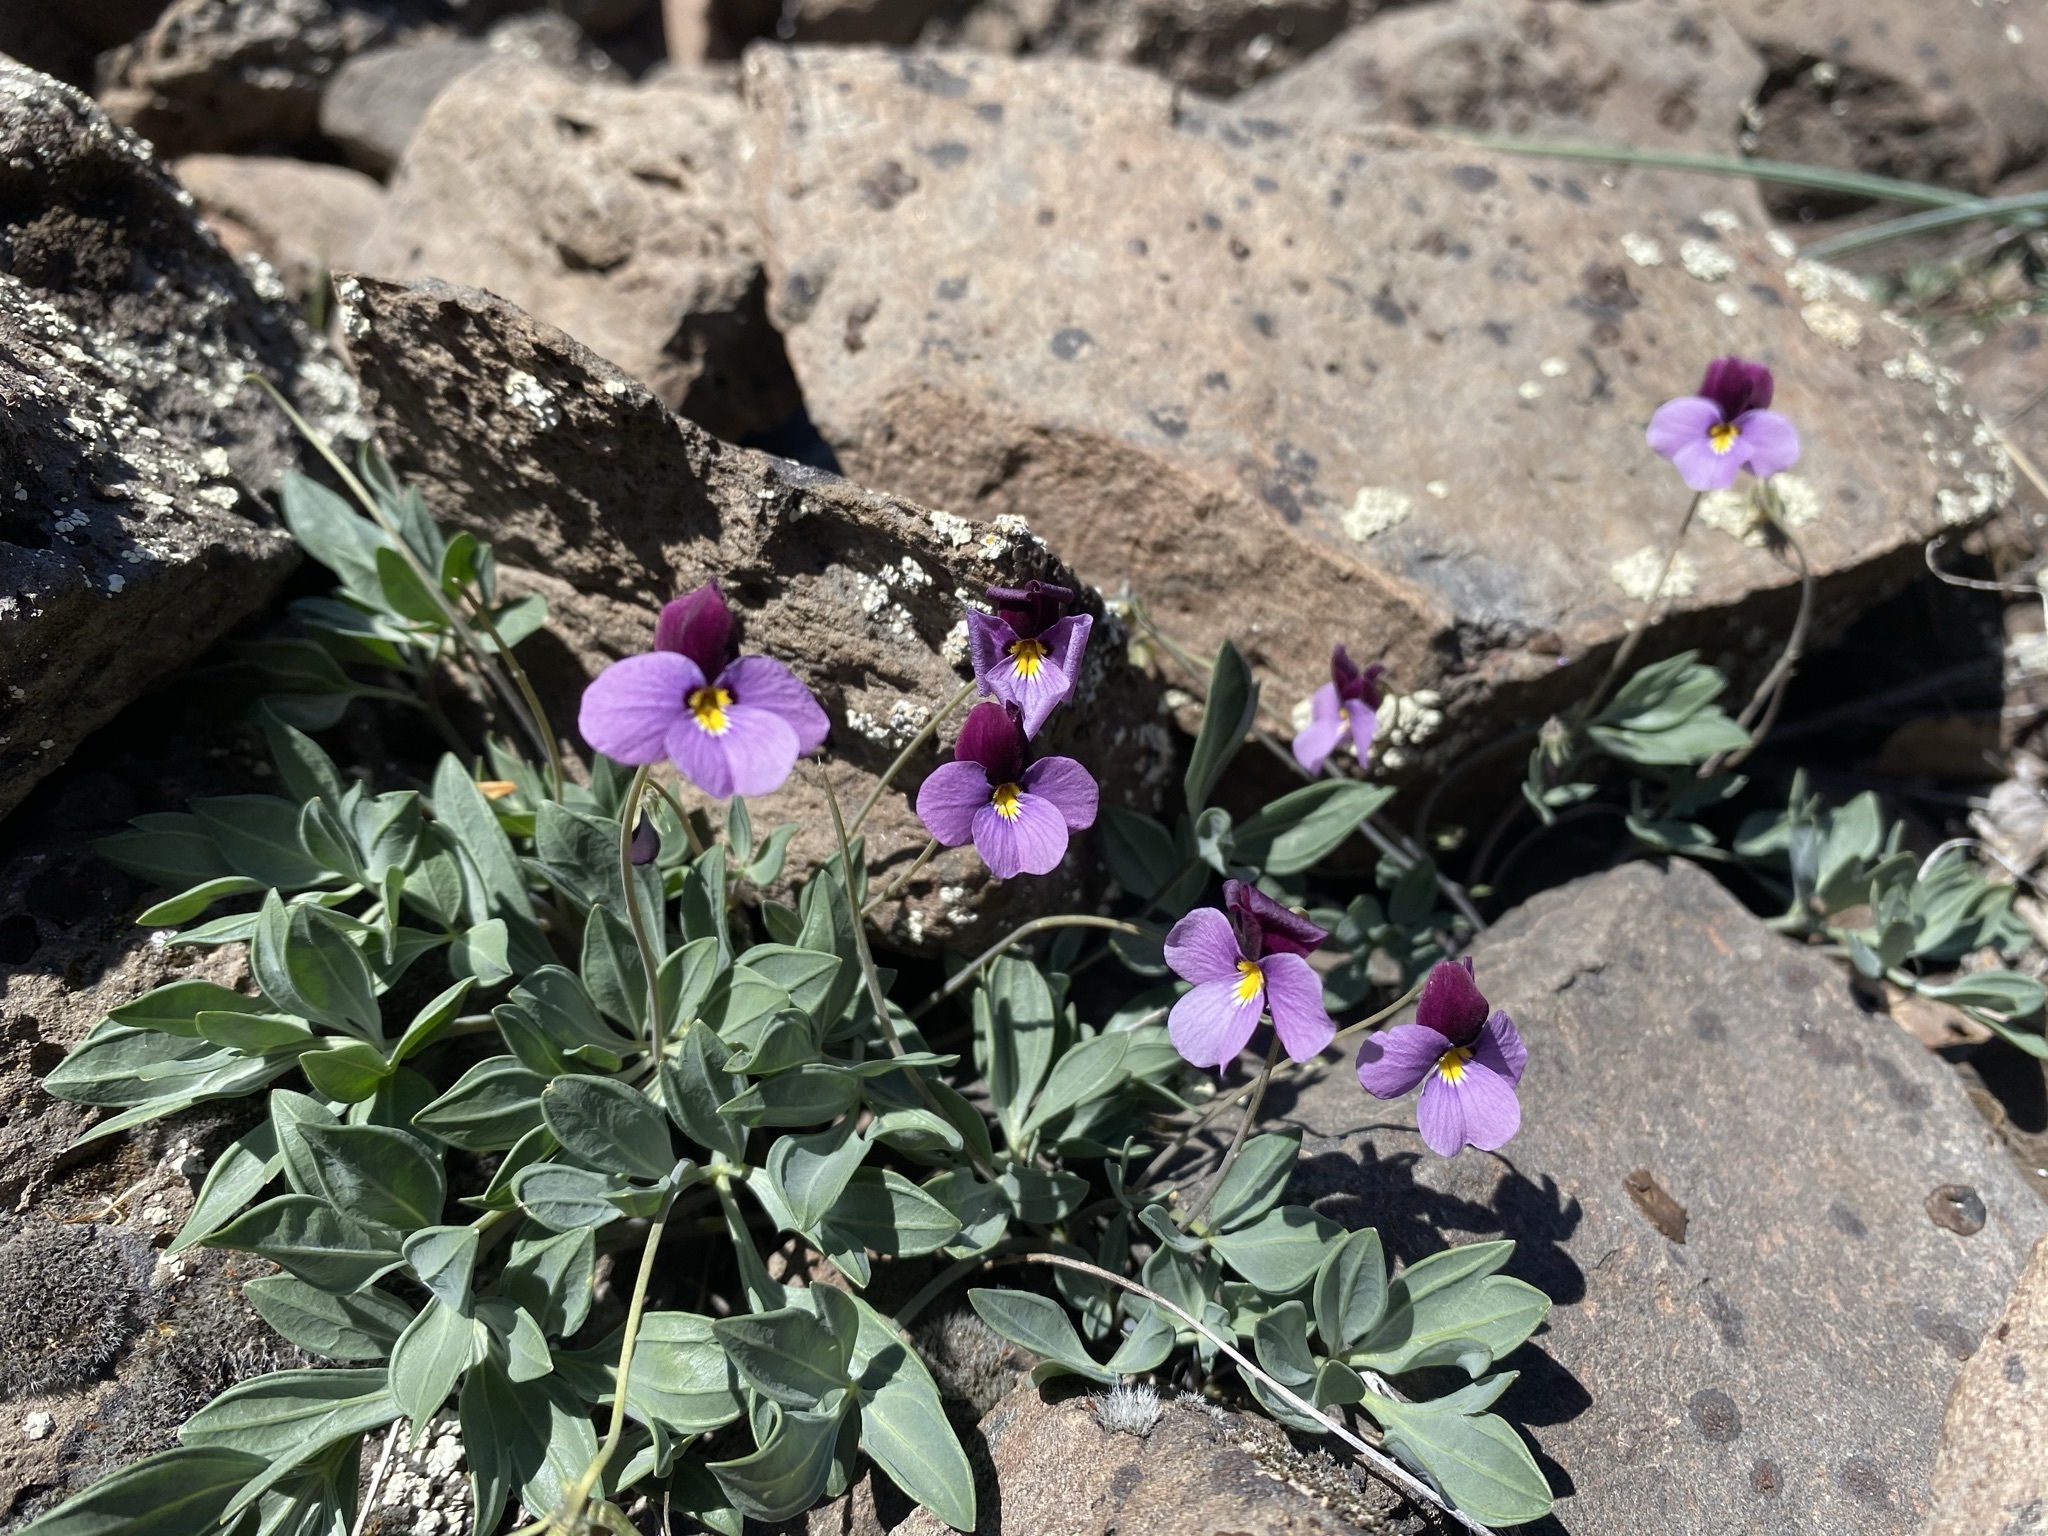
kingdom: Plantae
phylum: Tracheophyta
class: Magnoliopsida
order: Malpighiales
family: Violaceae
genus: Viola
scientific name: Viola trinervata
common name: Sagebrush violet
